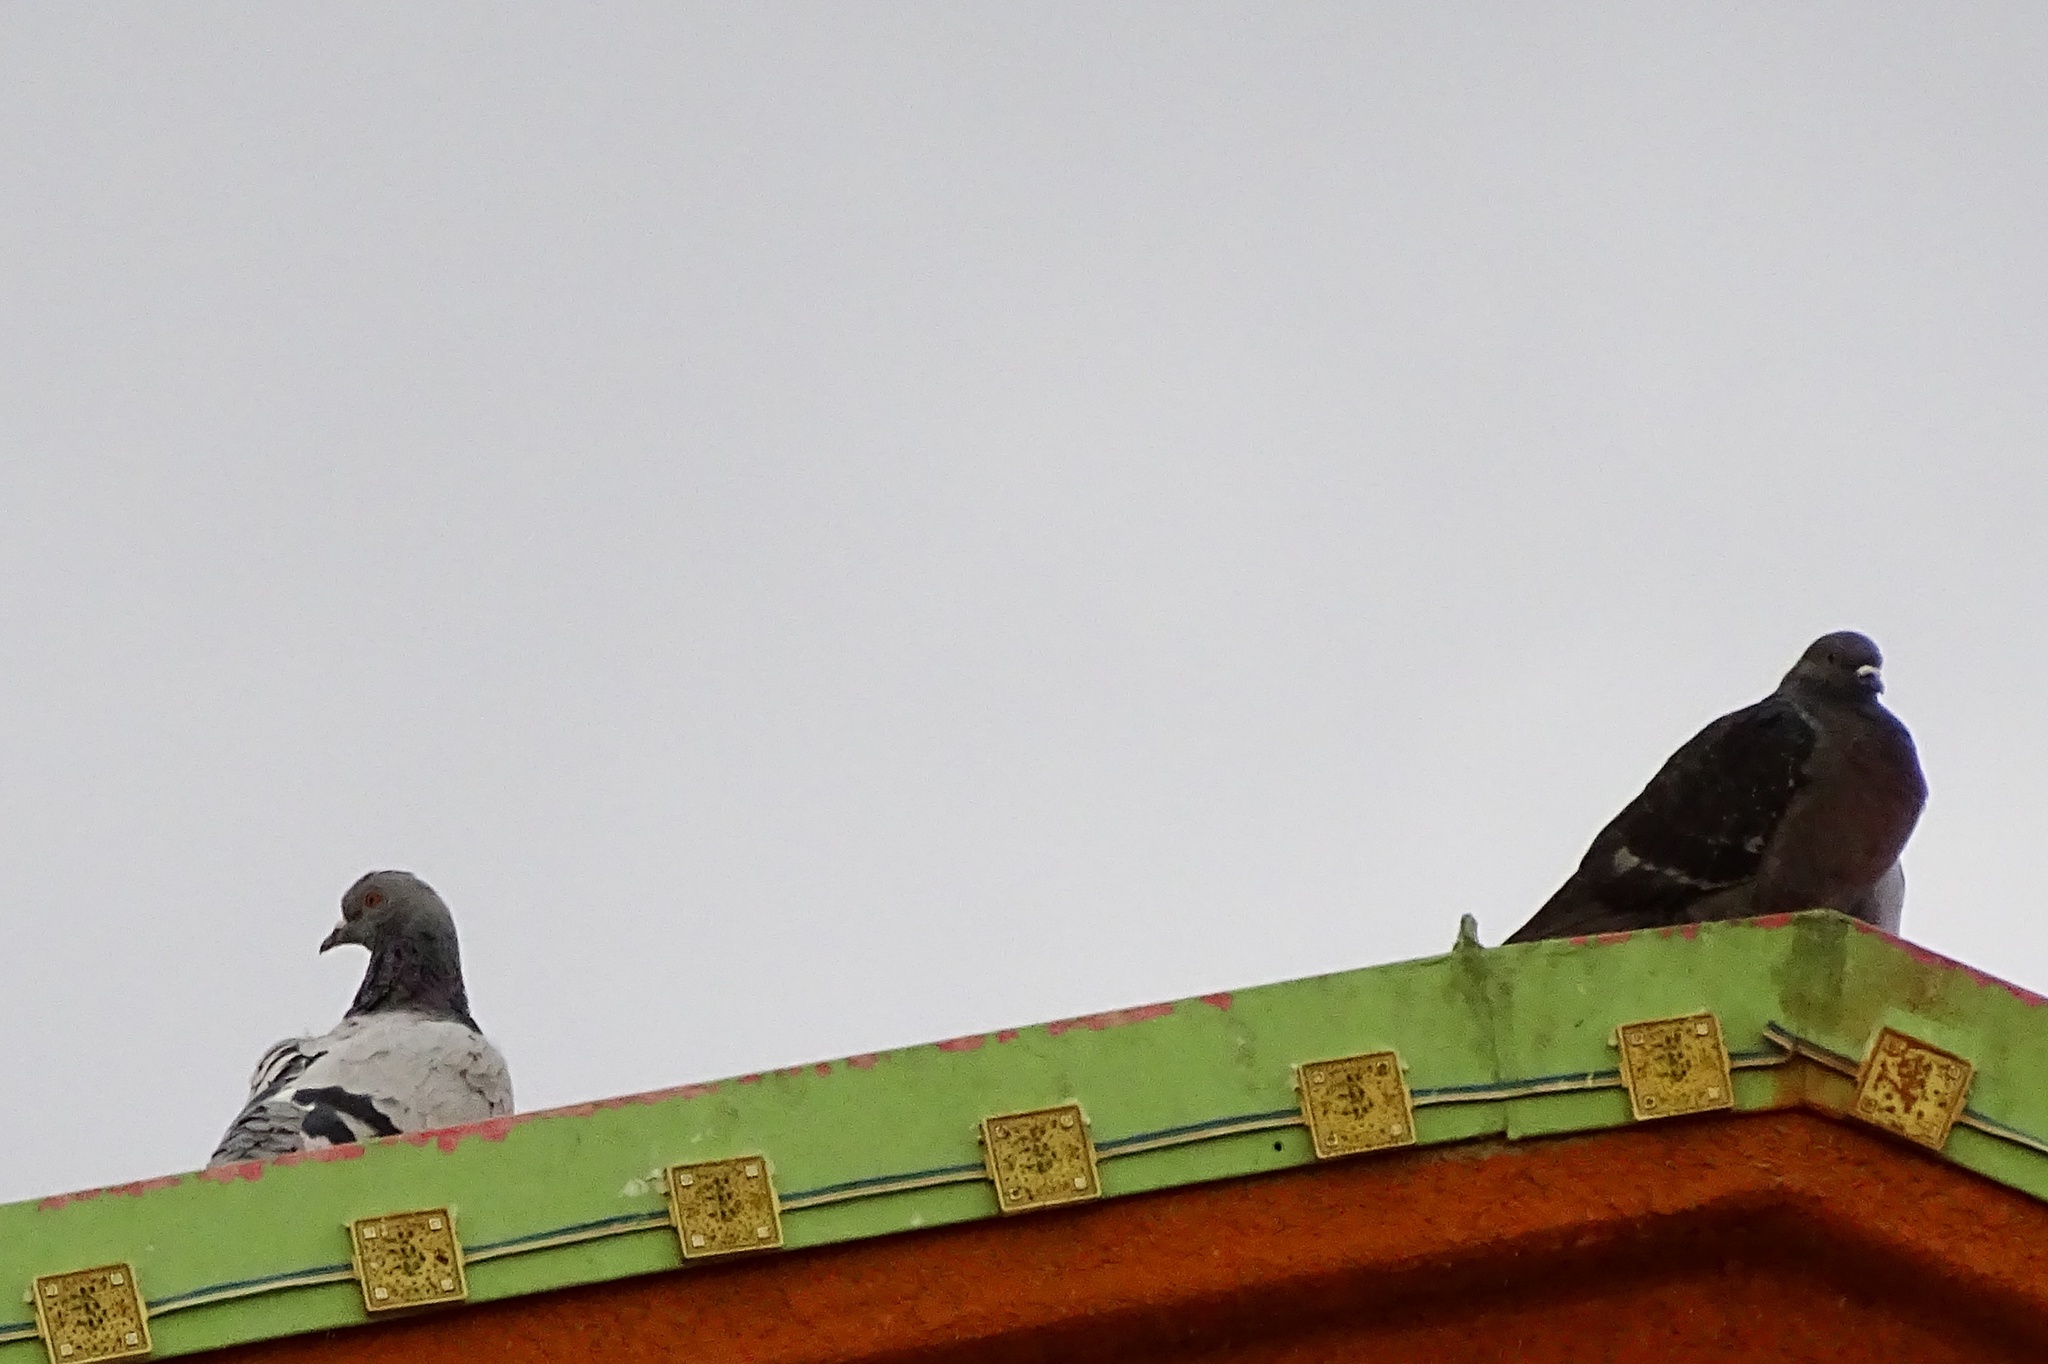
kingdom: Animalia
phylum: Chordata
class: Aves
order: Columbiformes
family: Columbidae
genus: Columba
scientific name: Columba livia
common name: Rock pigeon
